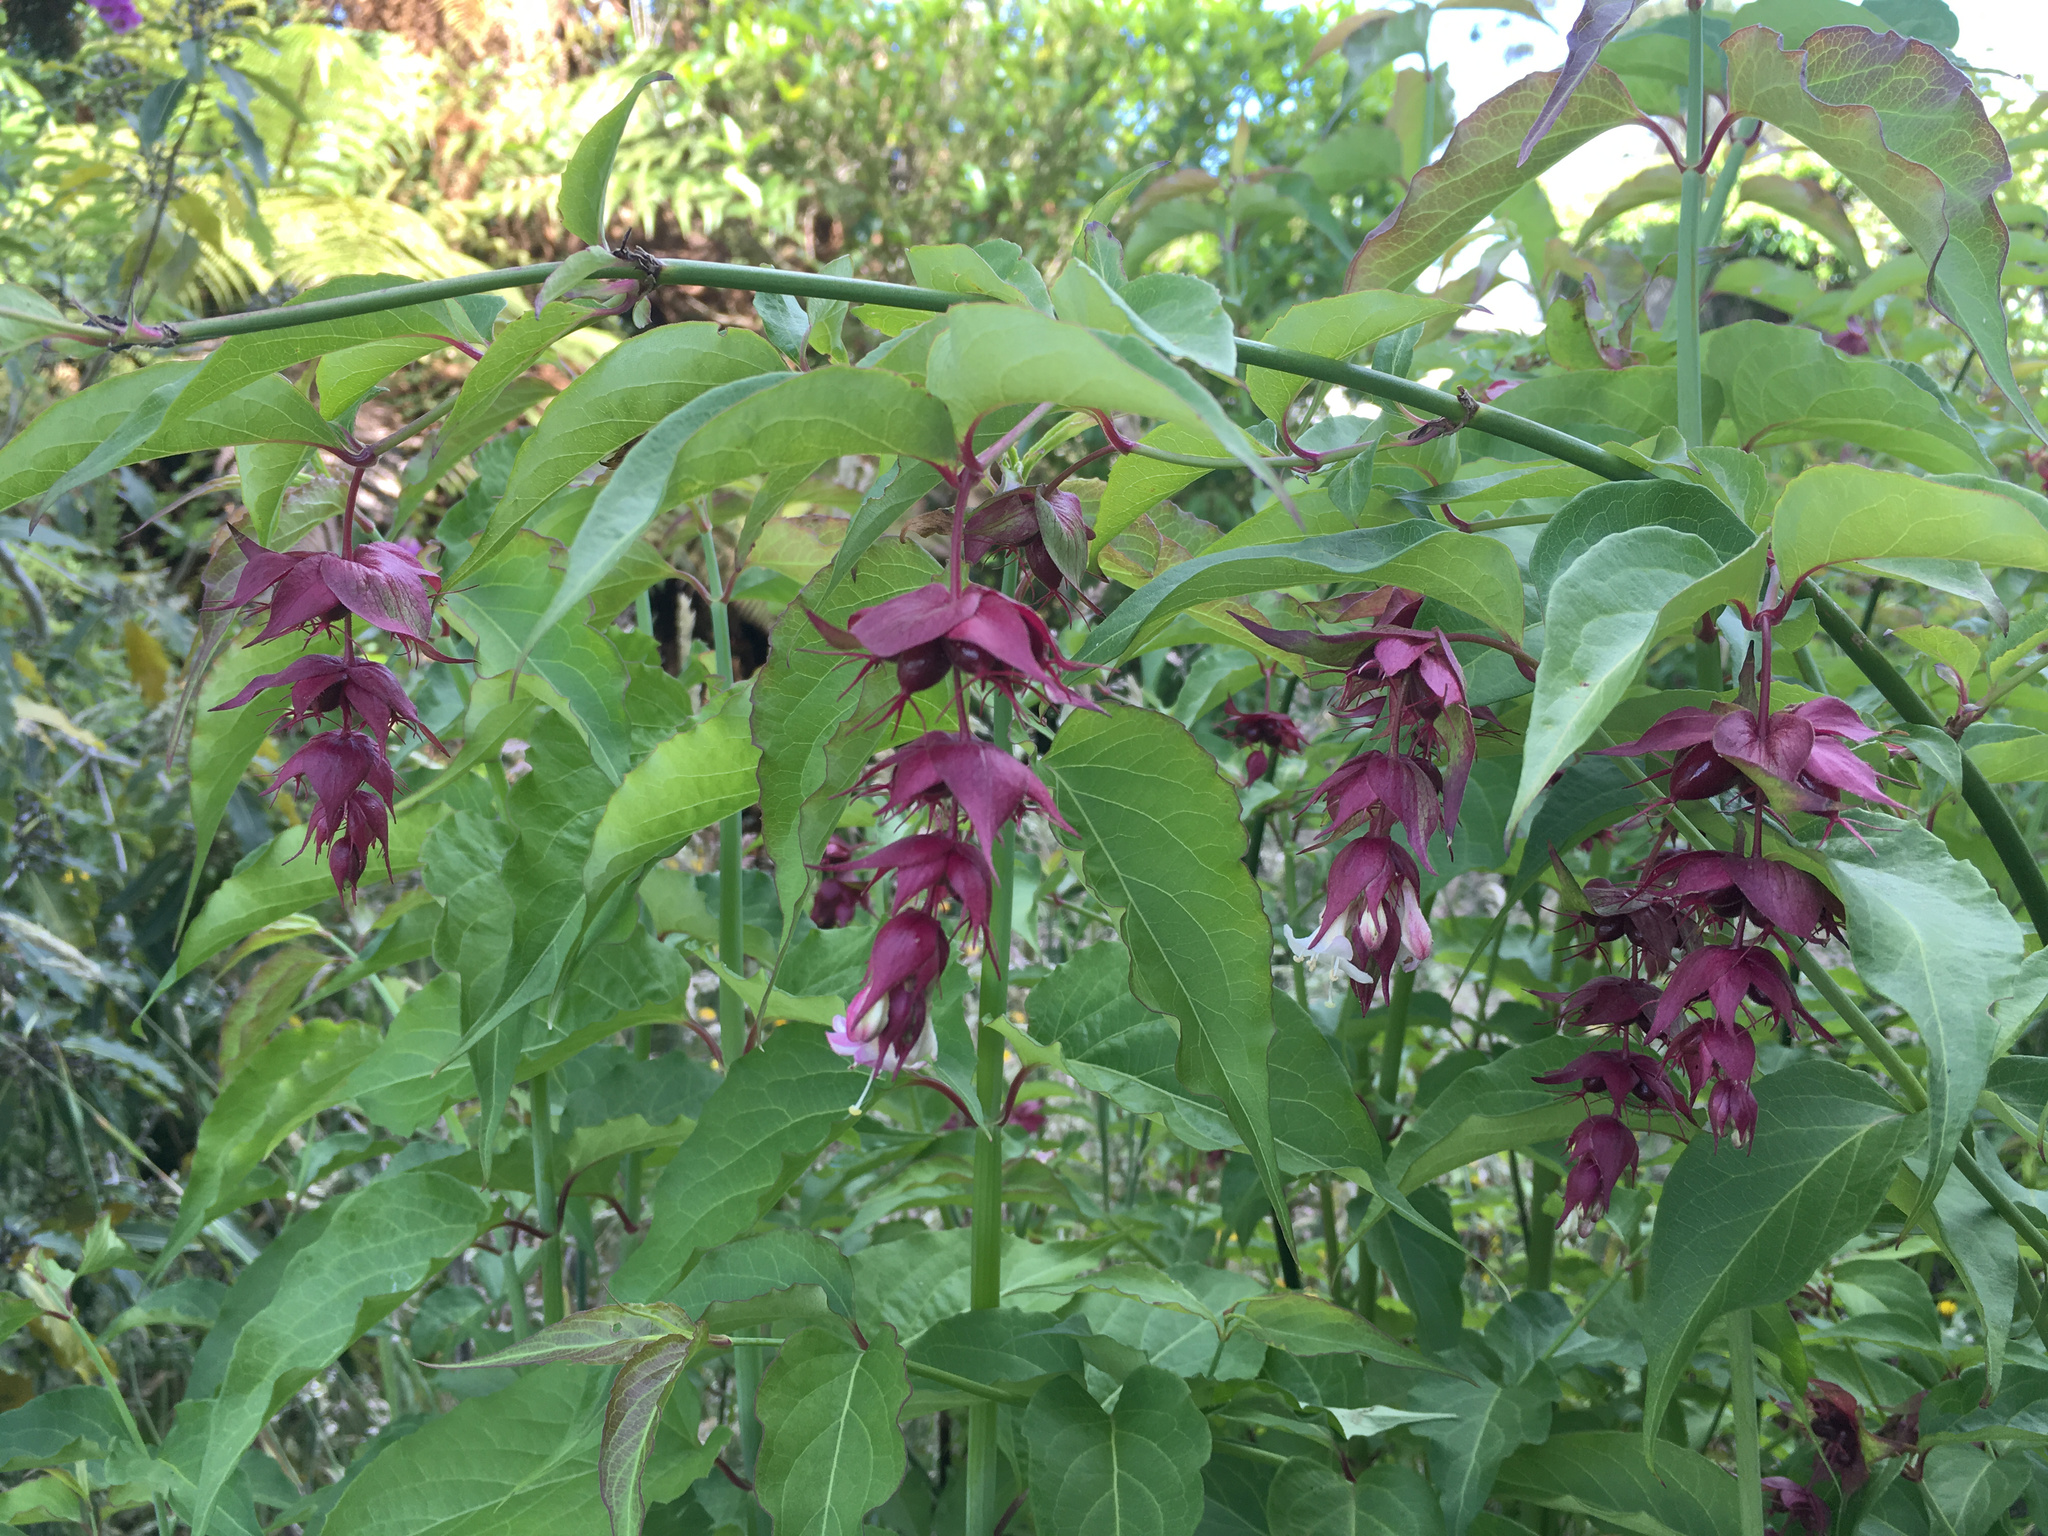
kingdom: Plantae
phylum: Tracheophyta
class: Magnoliopsida
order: Dipsacales
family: Caprifoliaceae
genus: Leycesteria
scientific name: Leycesteria formosa
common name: Himalayan honeysuckle
